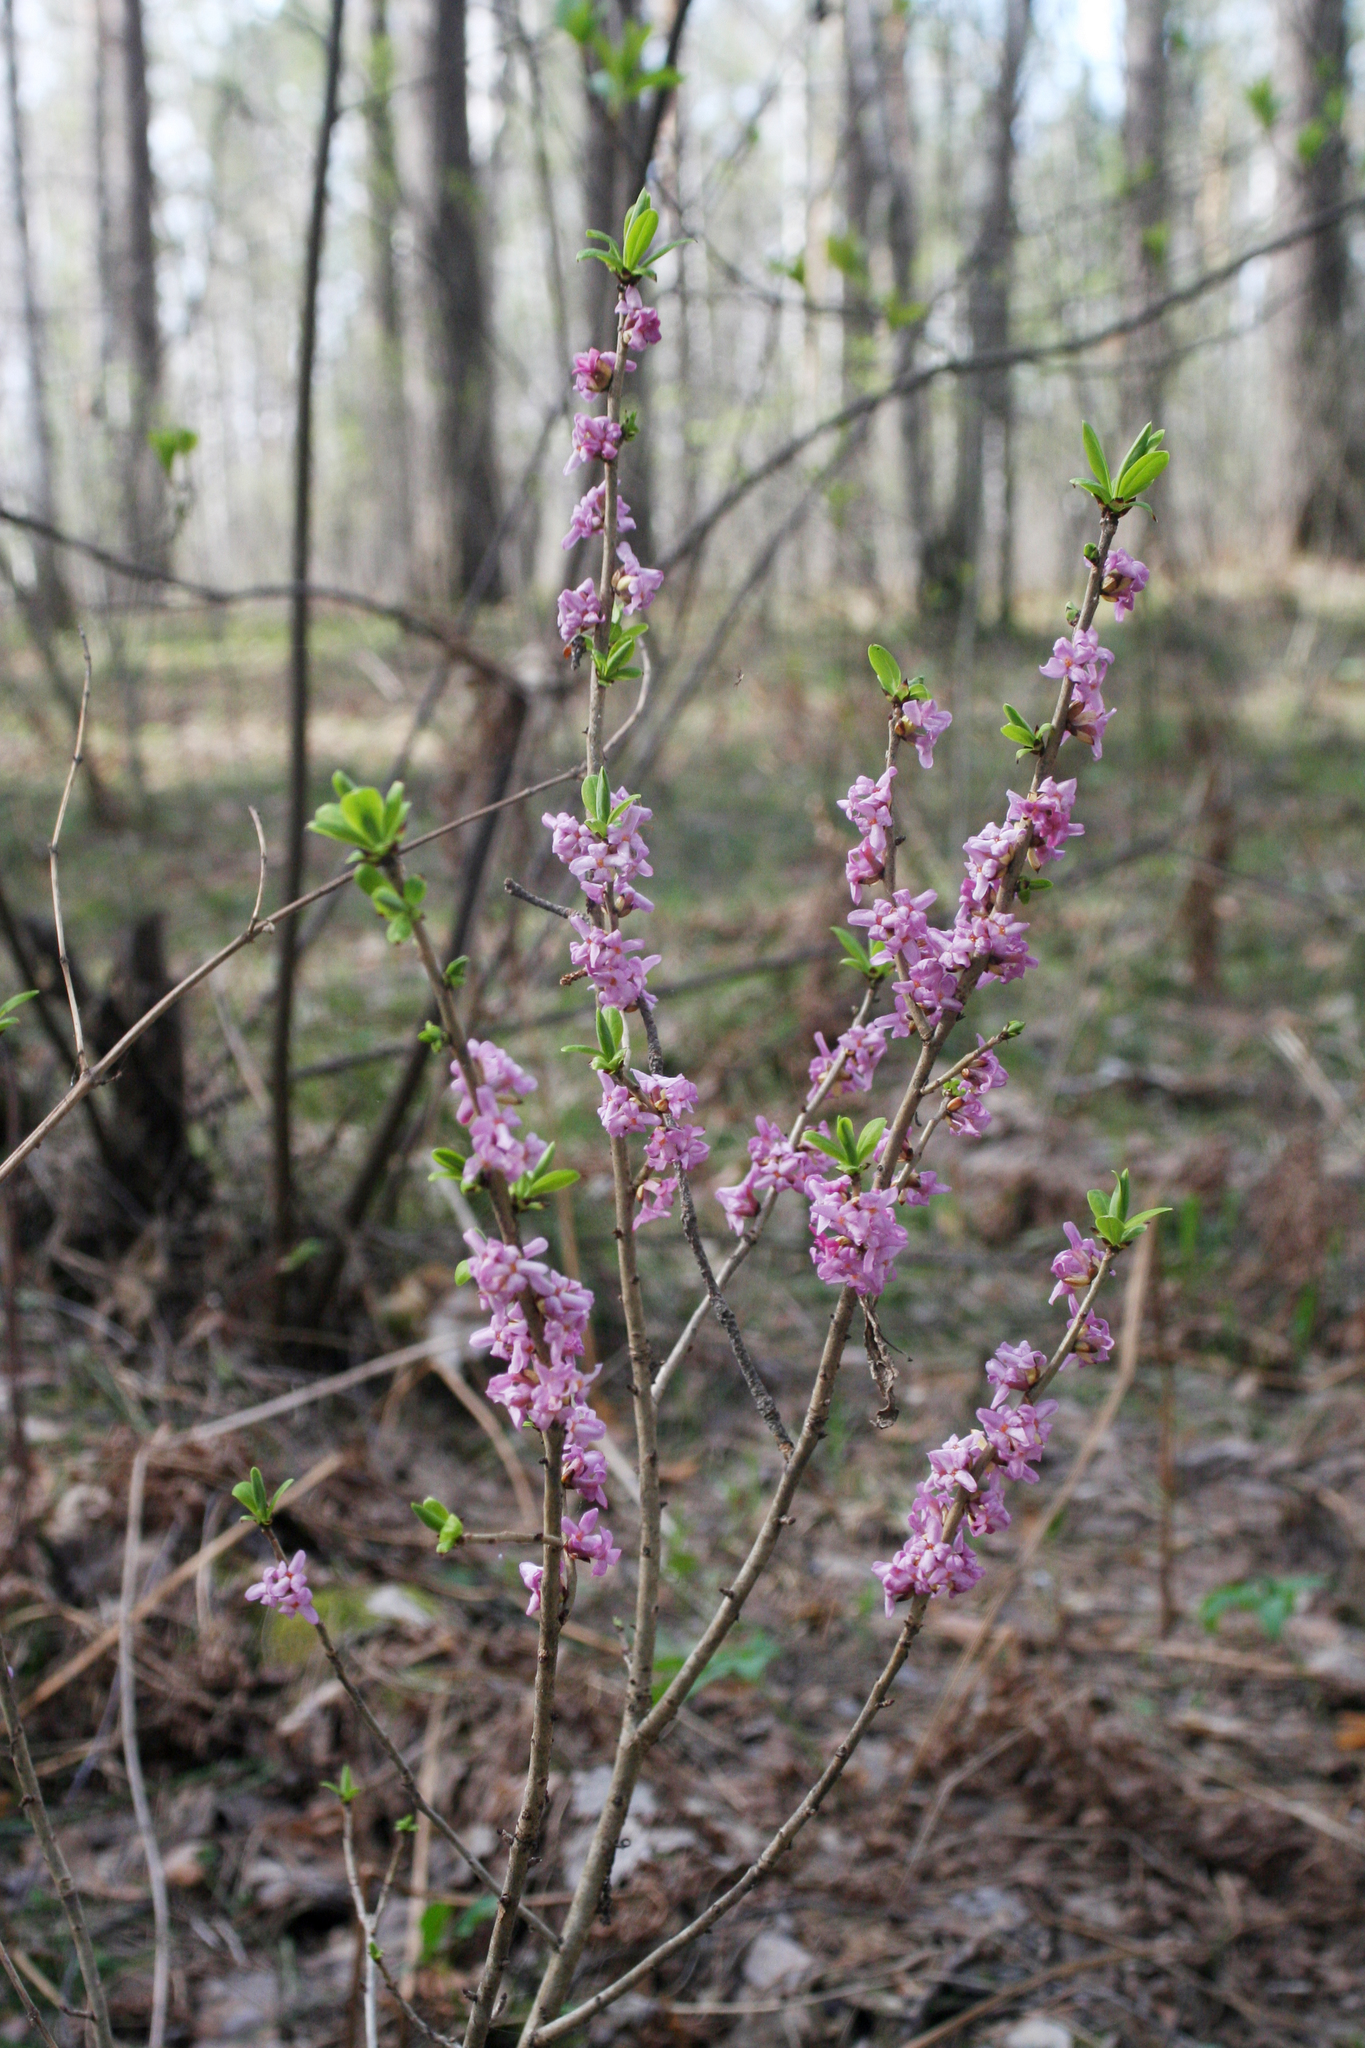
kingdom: Plantae
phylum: Tracheophyta
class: Magnoliopsida
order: Malvales
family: Thymelaeaceae
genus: Daphne
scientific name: Daphne mezereum
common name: Mezereon
